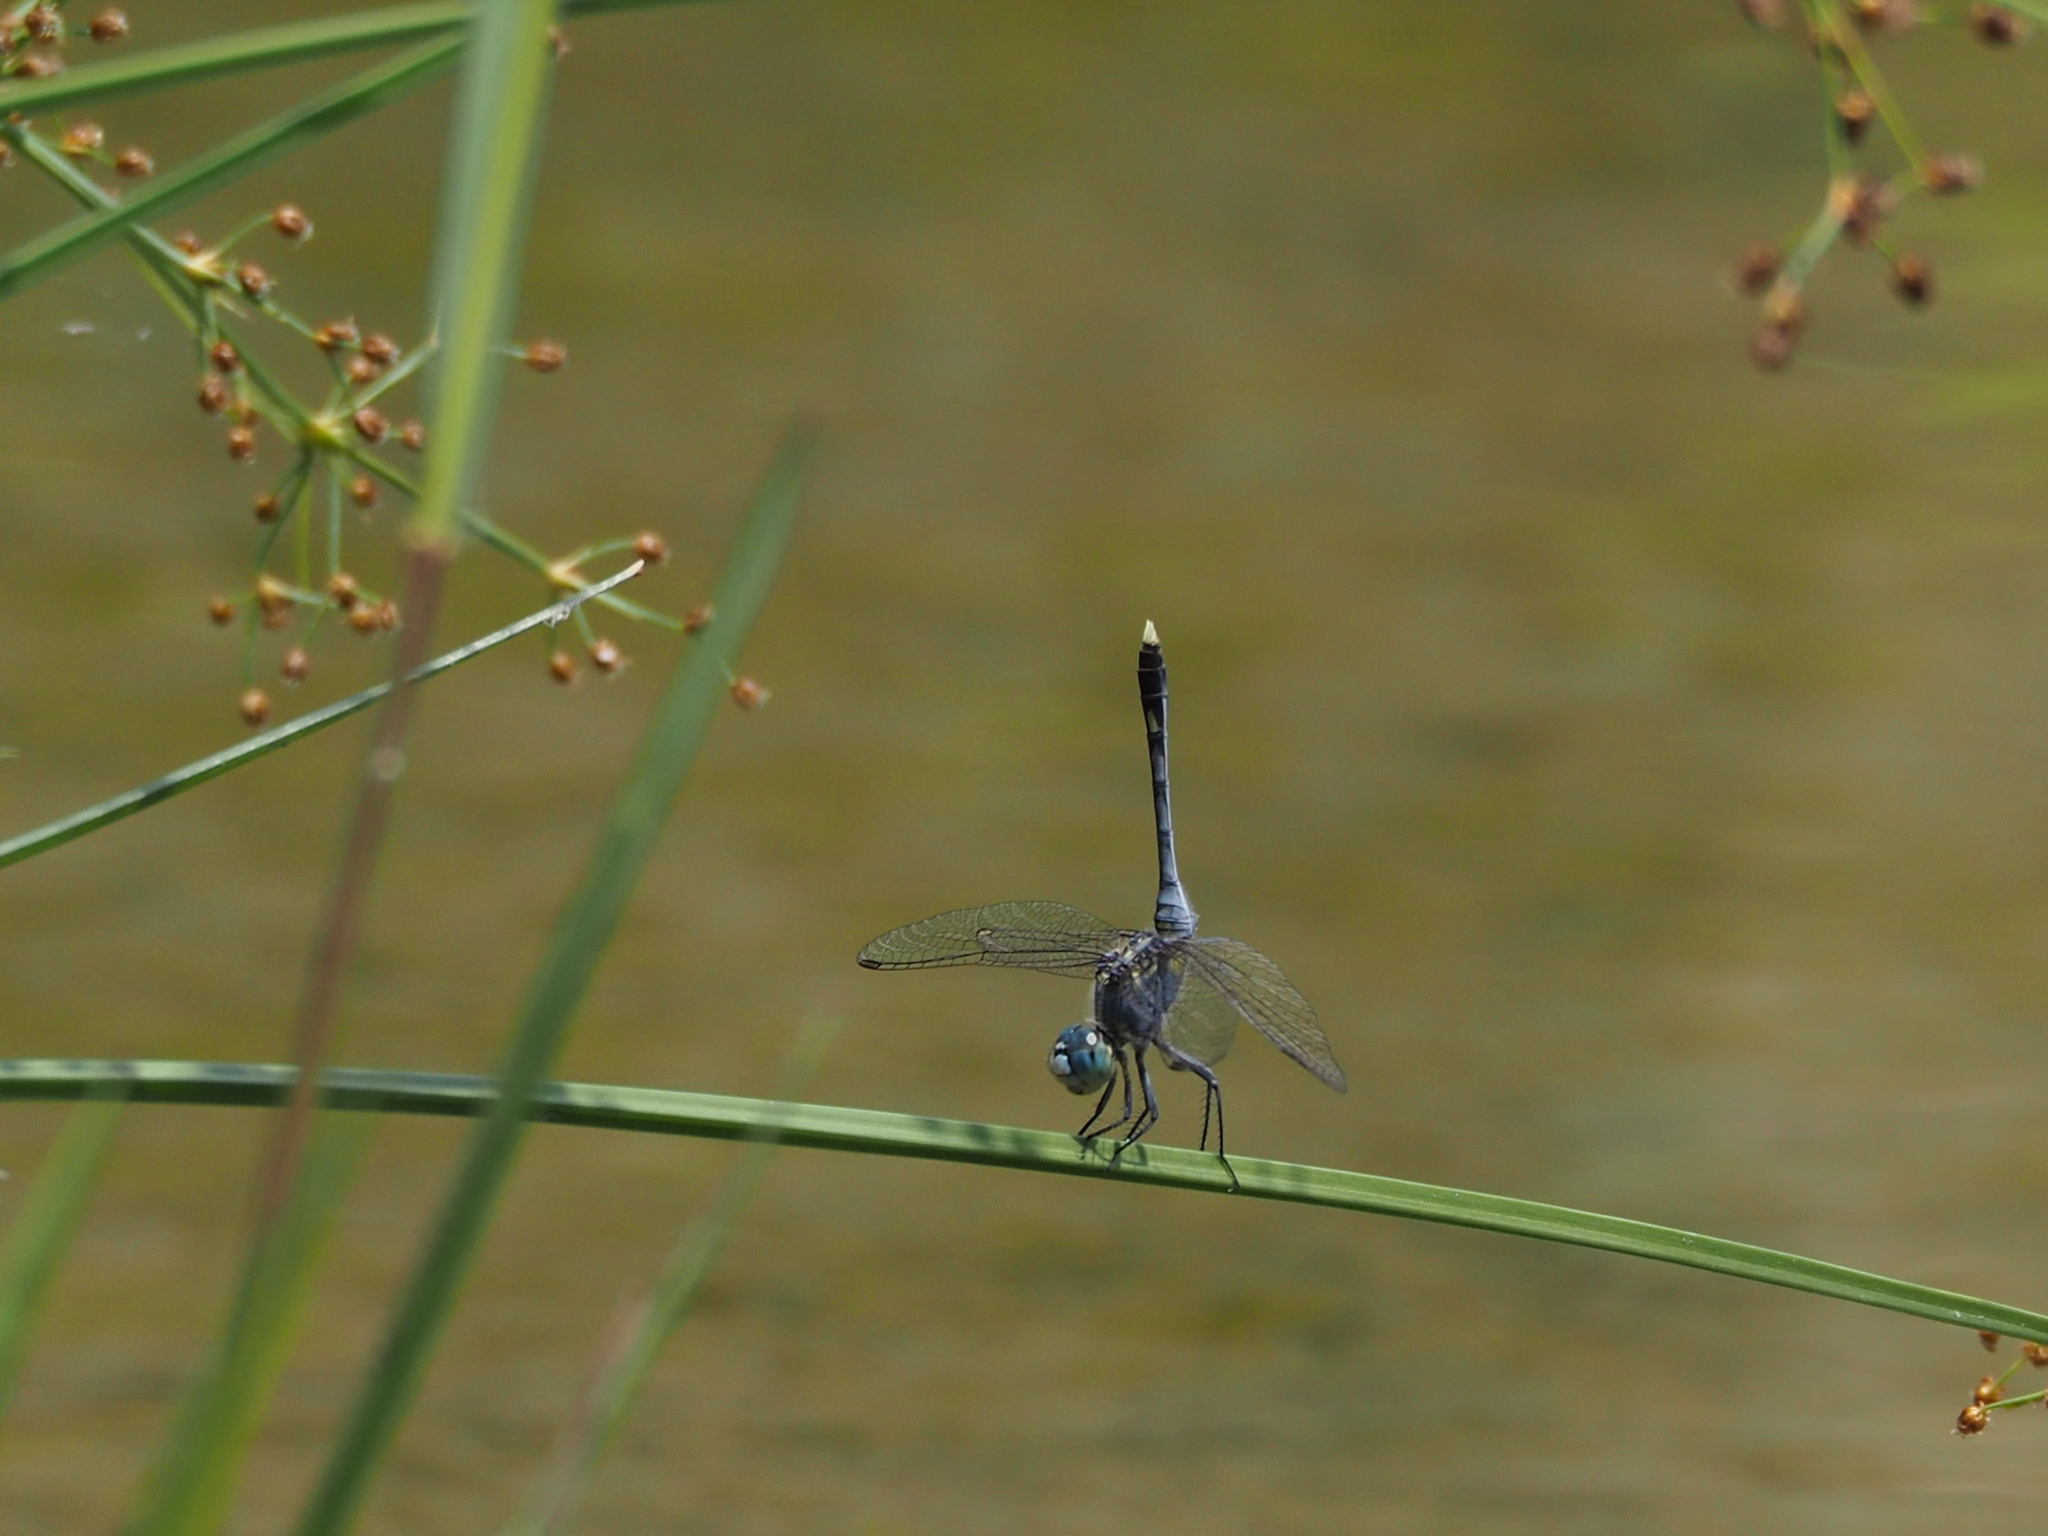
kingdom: Animalia
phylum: Arthropoda
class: Insecta
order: Odonata
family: Libellulidae
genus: Diplacodes
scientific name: Diplacodes trivialis
